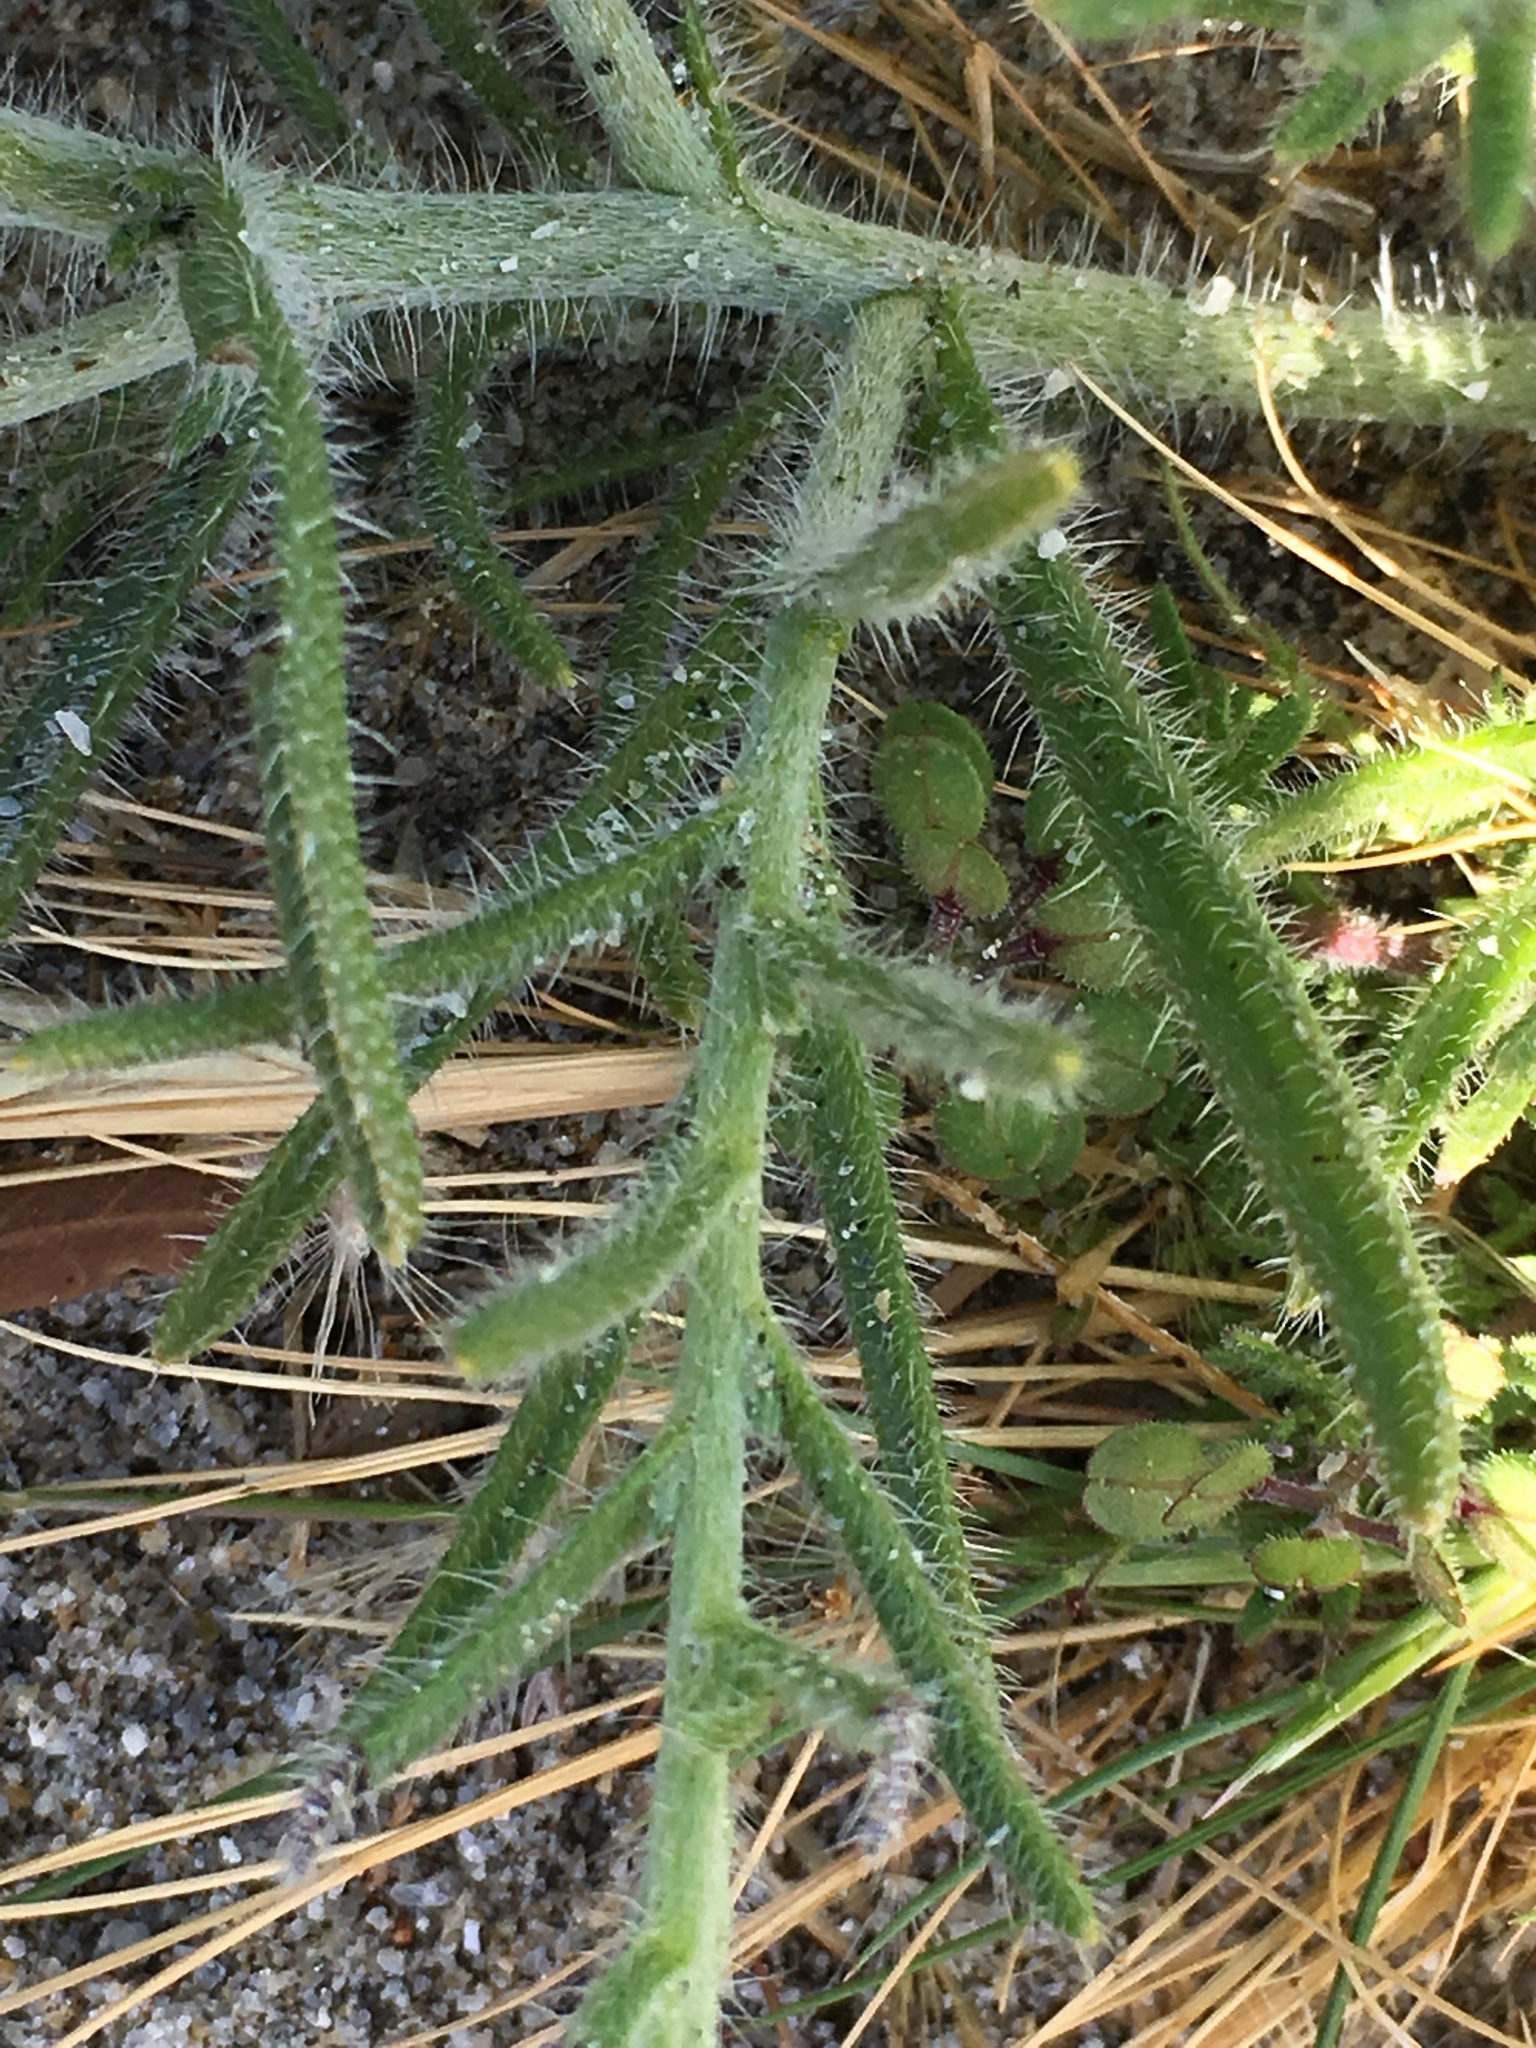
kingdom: Plantae
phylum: Tracheophyta
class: Magnoliopsida
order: Boraginales
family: Boraginaceae
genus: Johnstonella
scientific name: Johnstonella angustifolia
